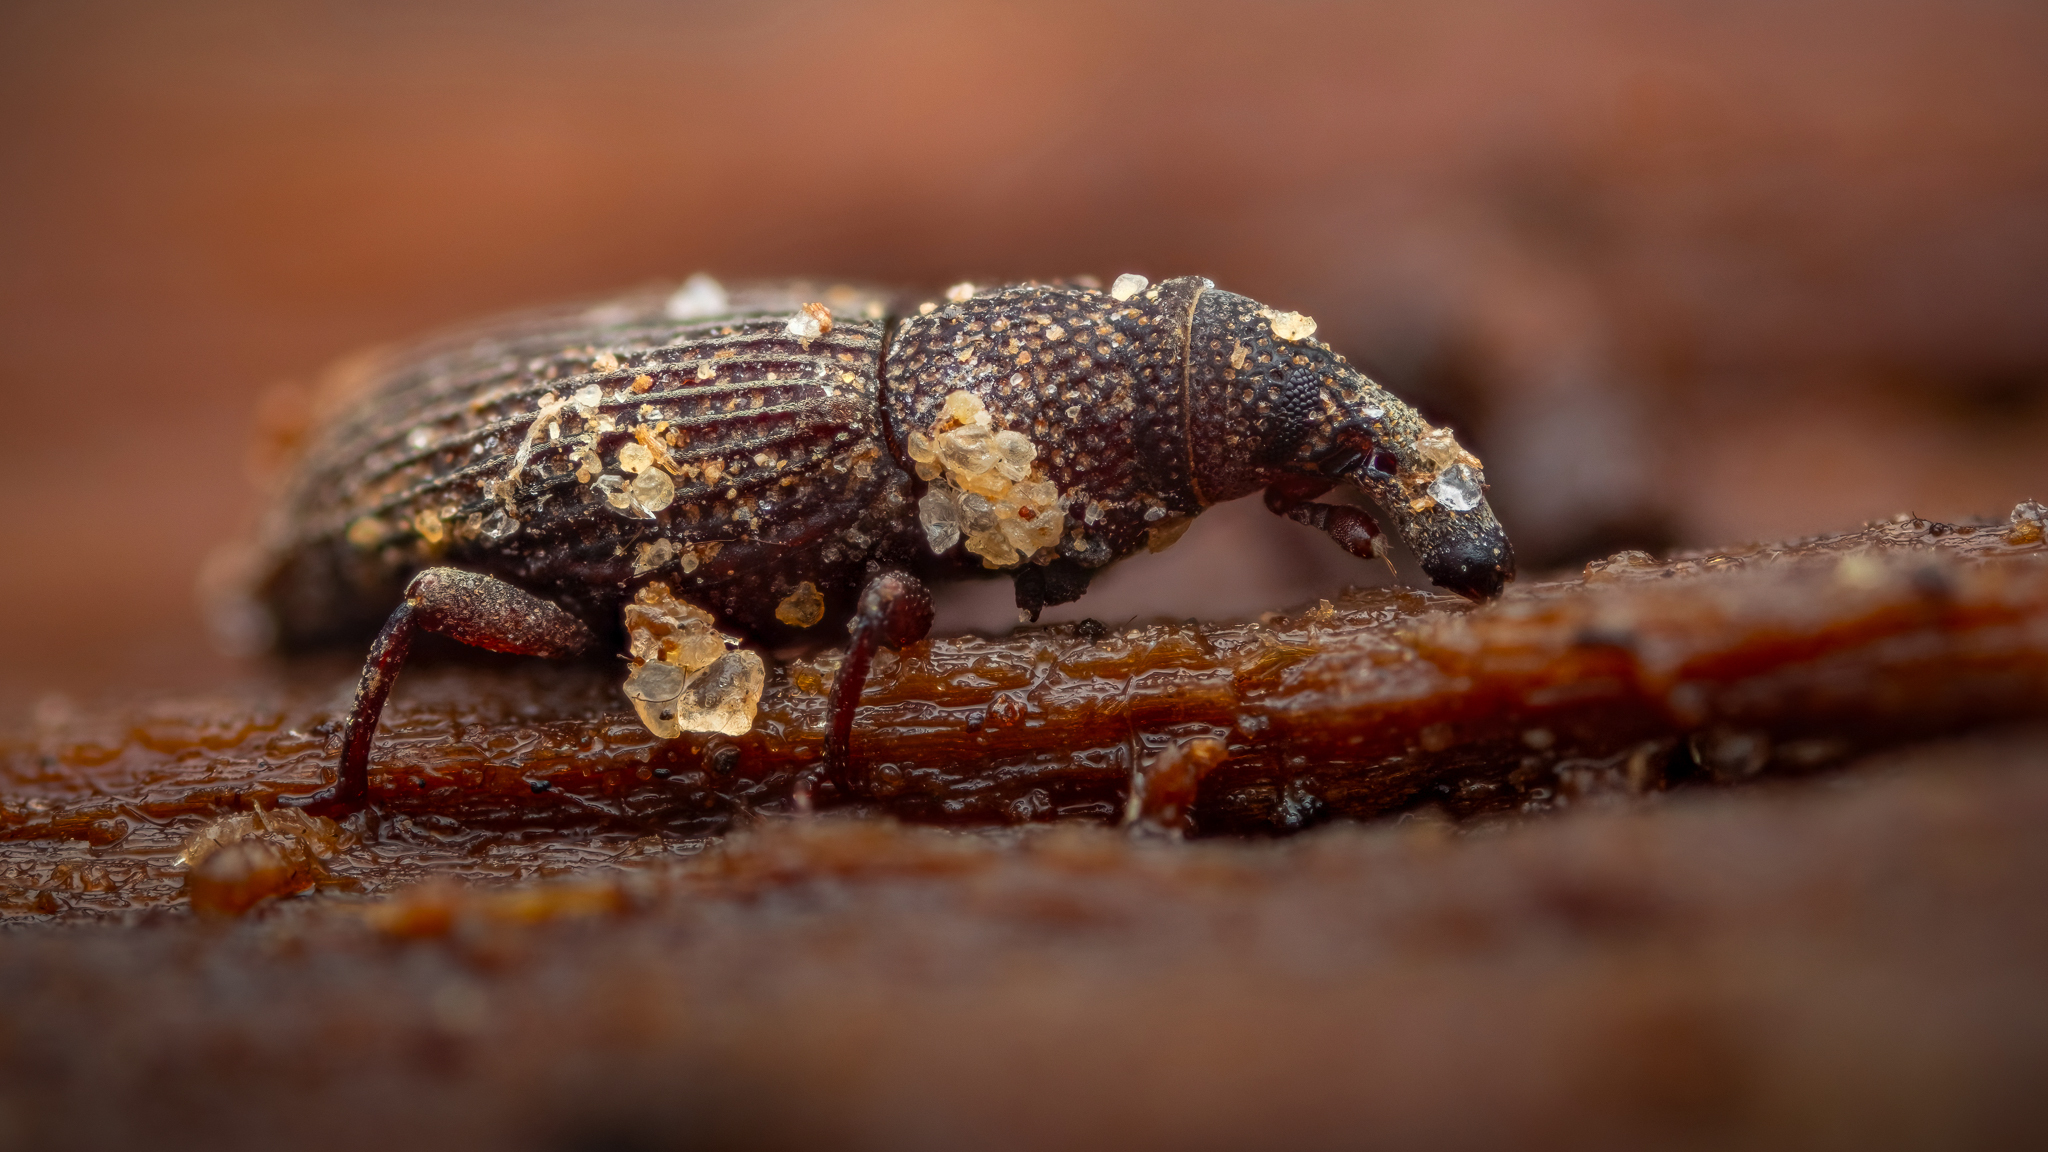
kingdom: Animalia
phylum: Arthropoda
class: Insecta
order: Coleoptera
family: Dryophthoridae
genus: Dryophthorus
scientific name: Dryophthorus corticalis
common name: Wood-boring weevil
